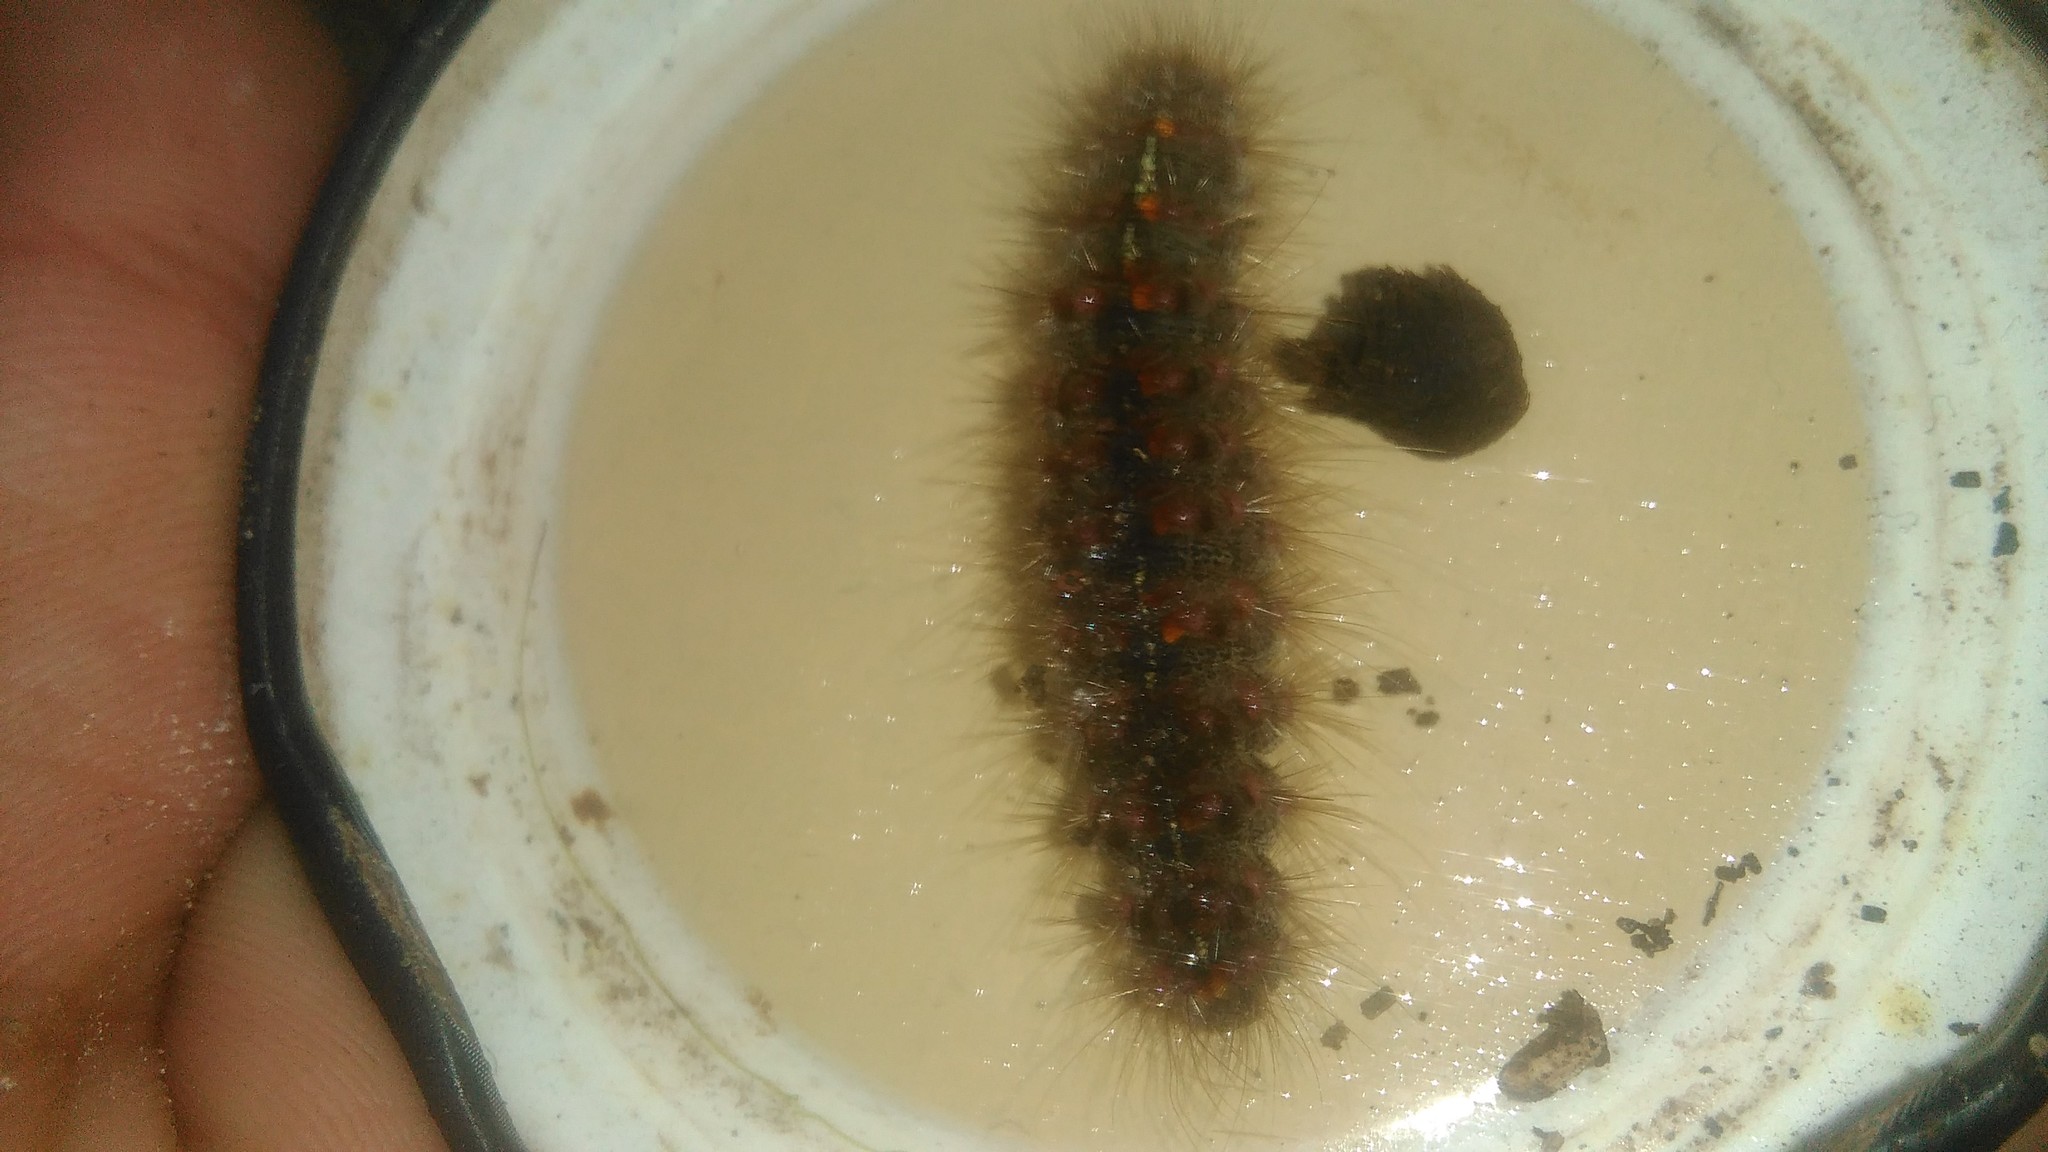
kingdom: Animalia
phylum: Arthropoda
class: Insecta
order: Lepidoptera
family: Erebidae
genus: Paracles
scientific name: Paracles fusca
